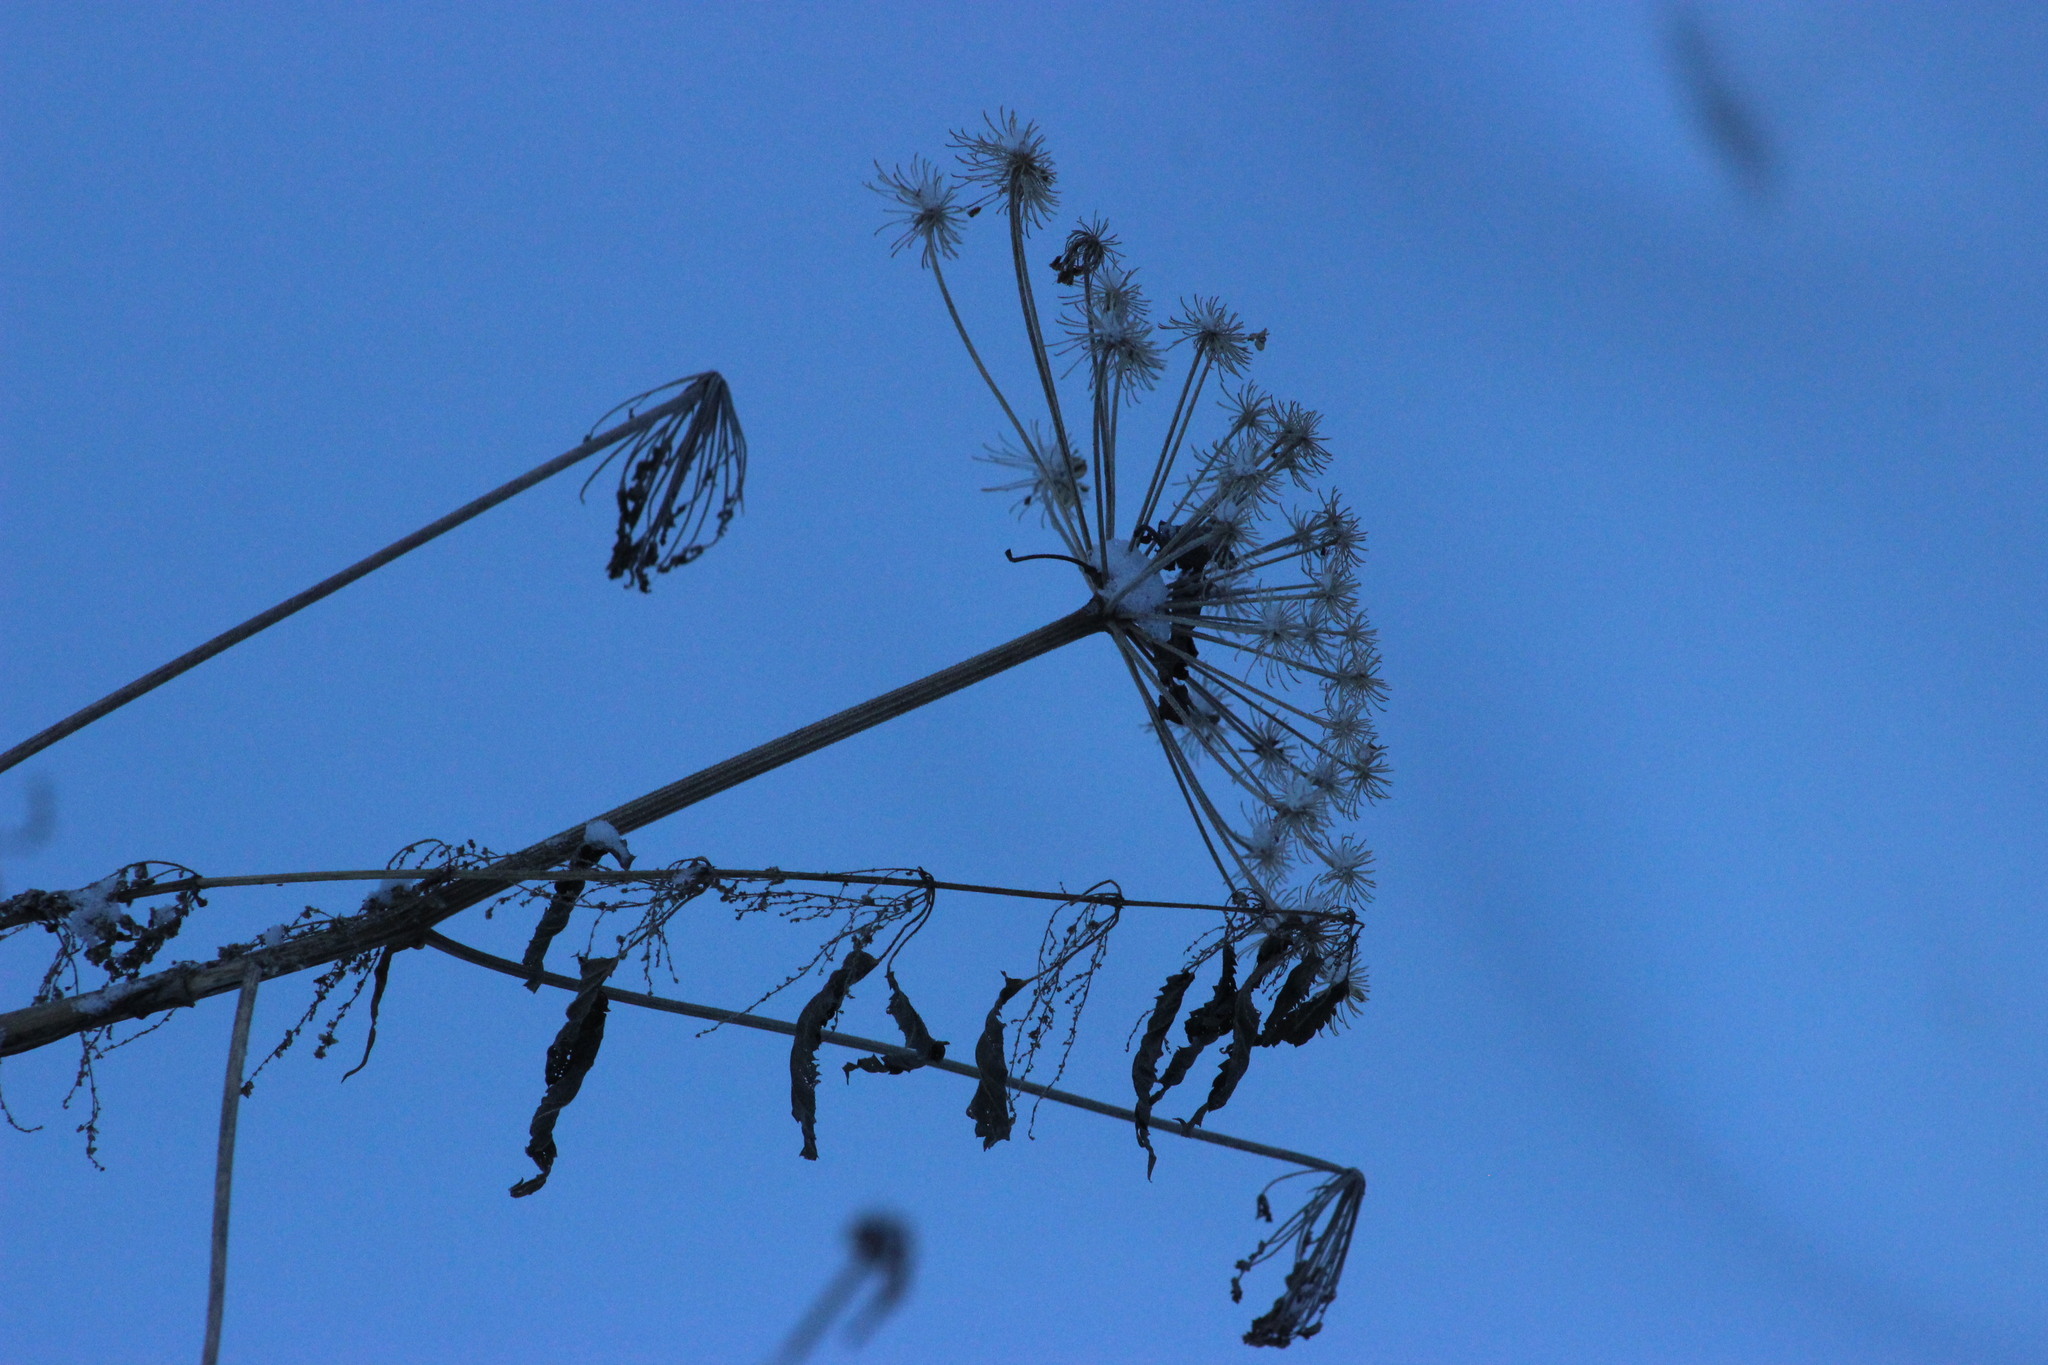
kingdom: Plantae
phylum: Tracheophyta
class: Magnoliopsida
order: Rosales
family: Urticaceae
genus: Urtica
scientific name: Urtica dioica
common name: Common nettle
